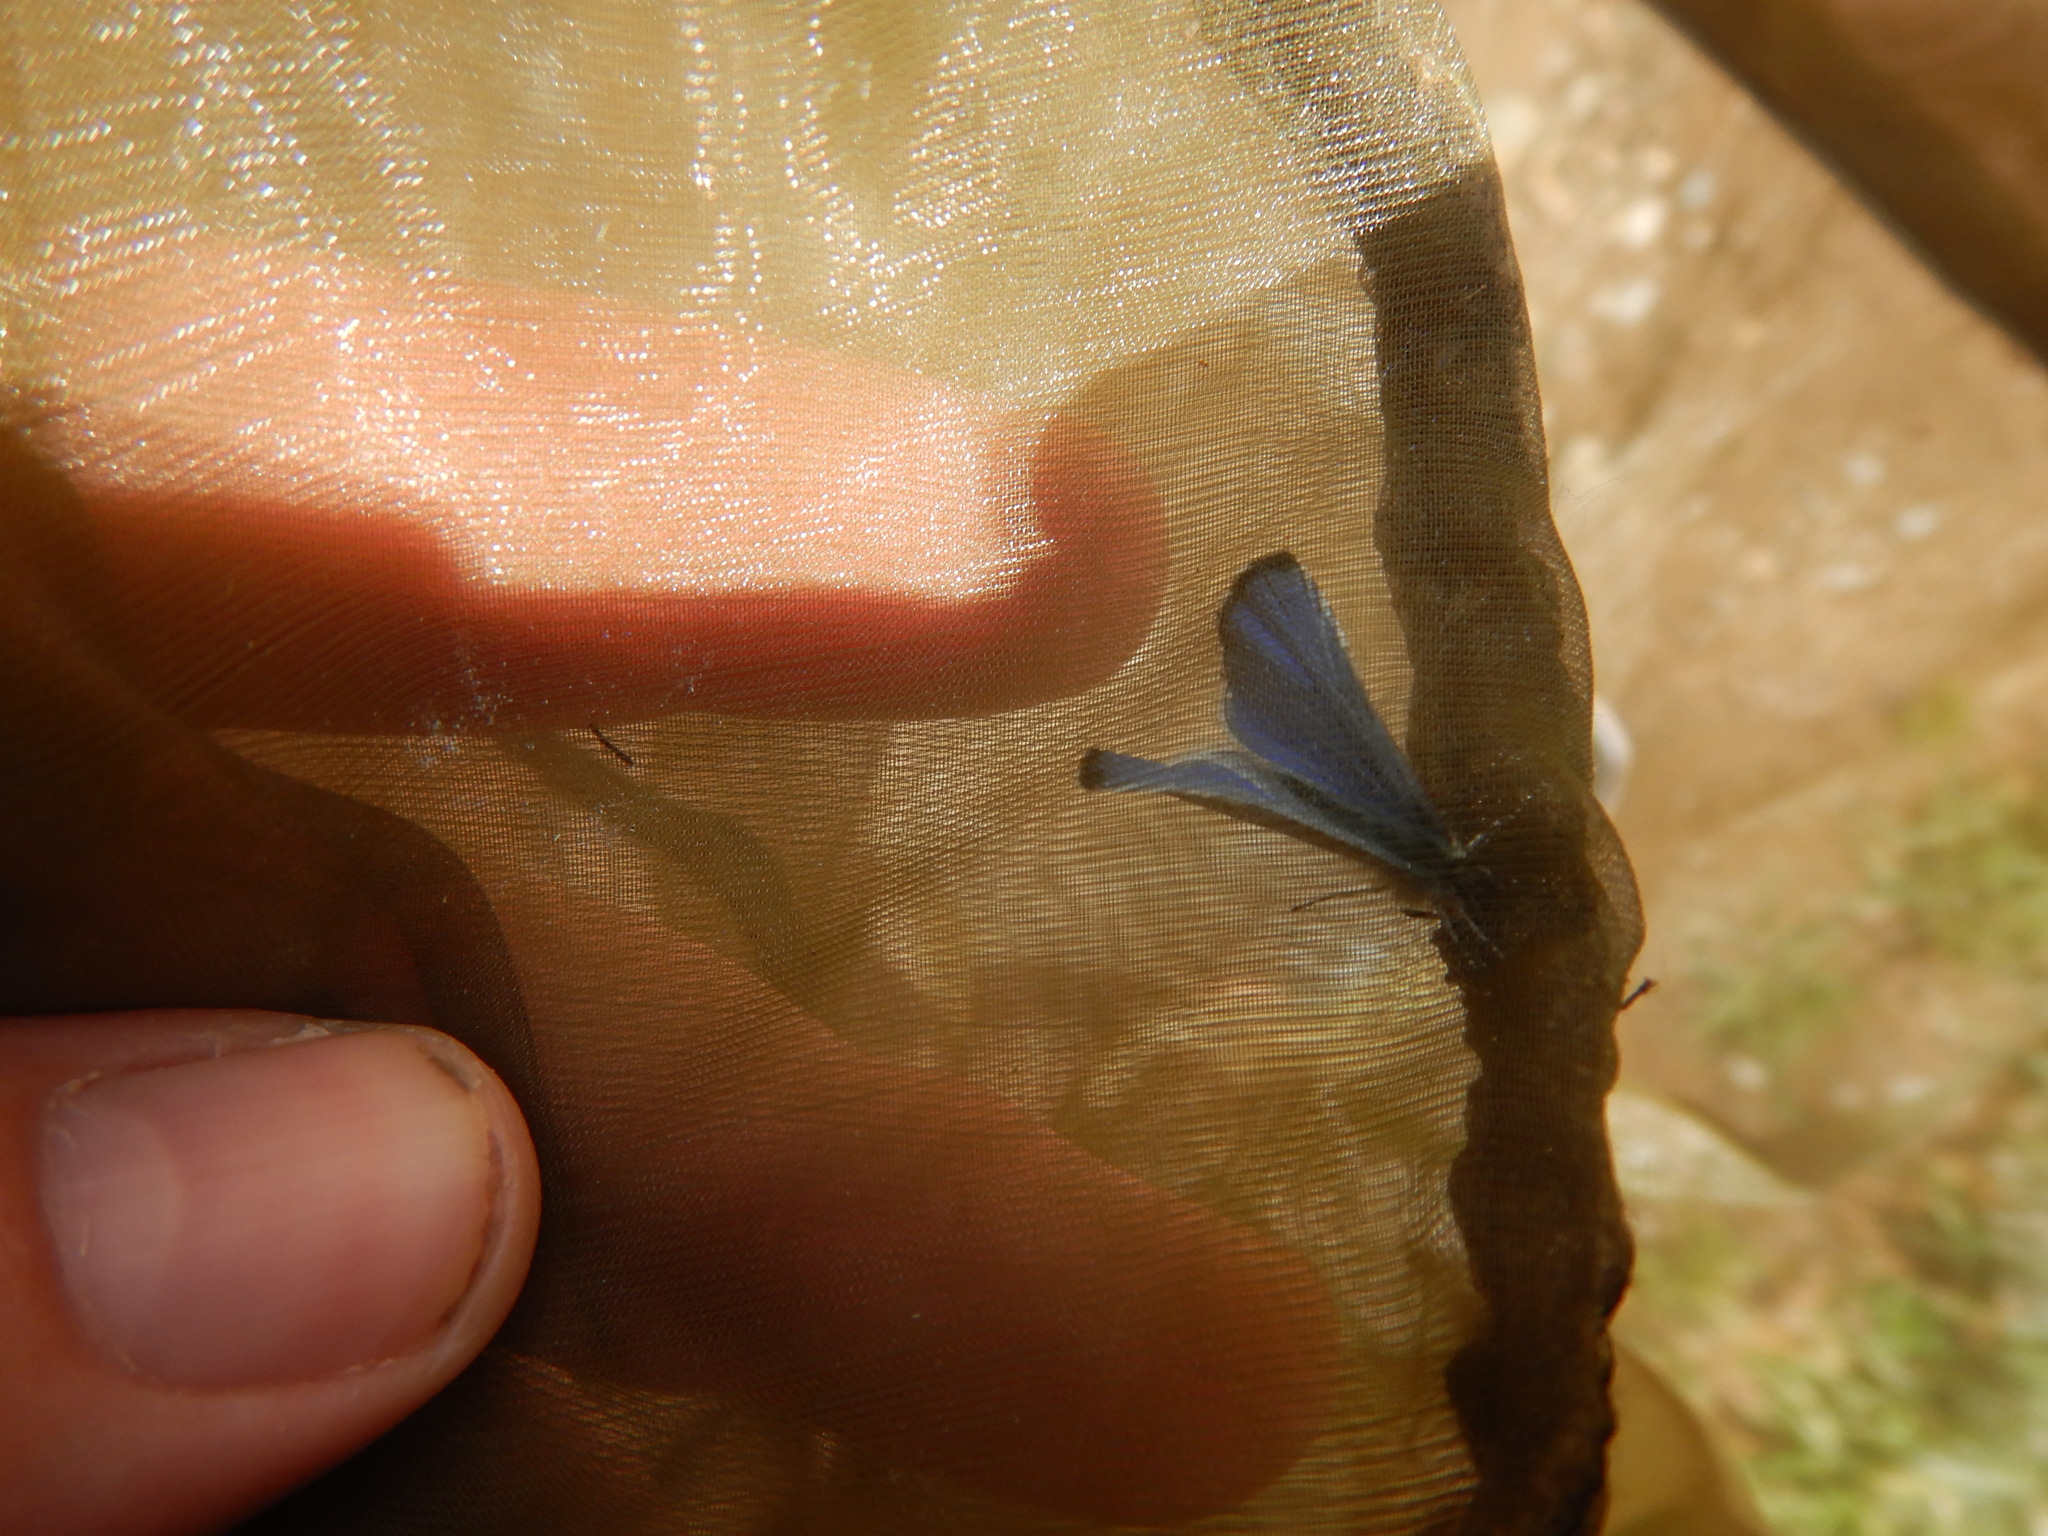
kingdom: Animalia
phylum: Arthropoda
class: Insecta
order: Lepidoptera
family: Lycaenidae
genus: Celastrina
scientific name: Celastrina argiolus
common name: Holly blue
